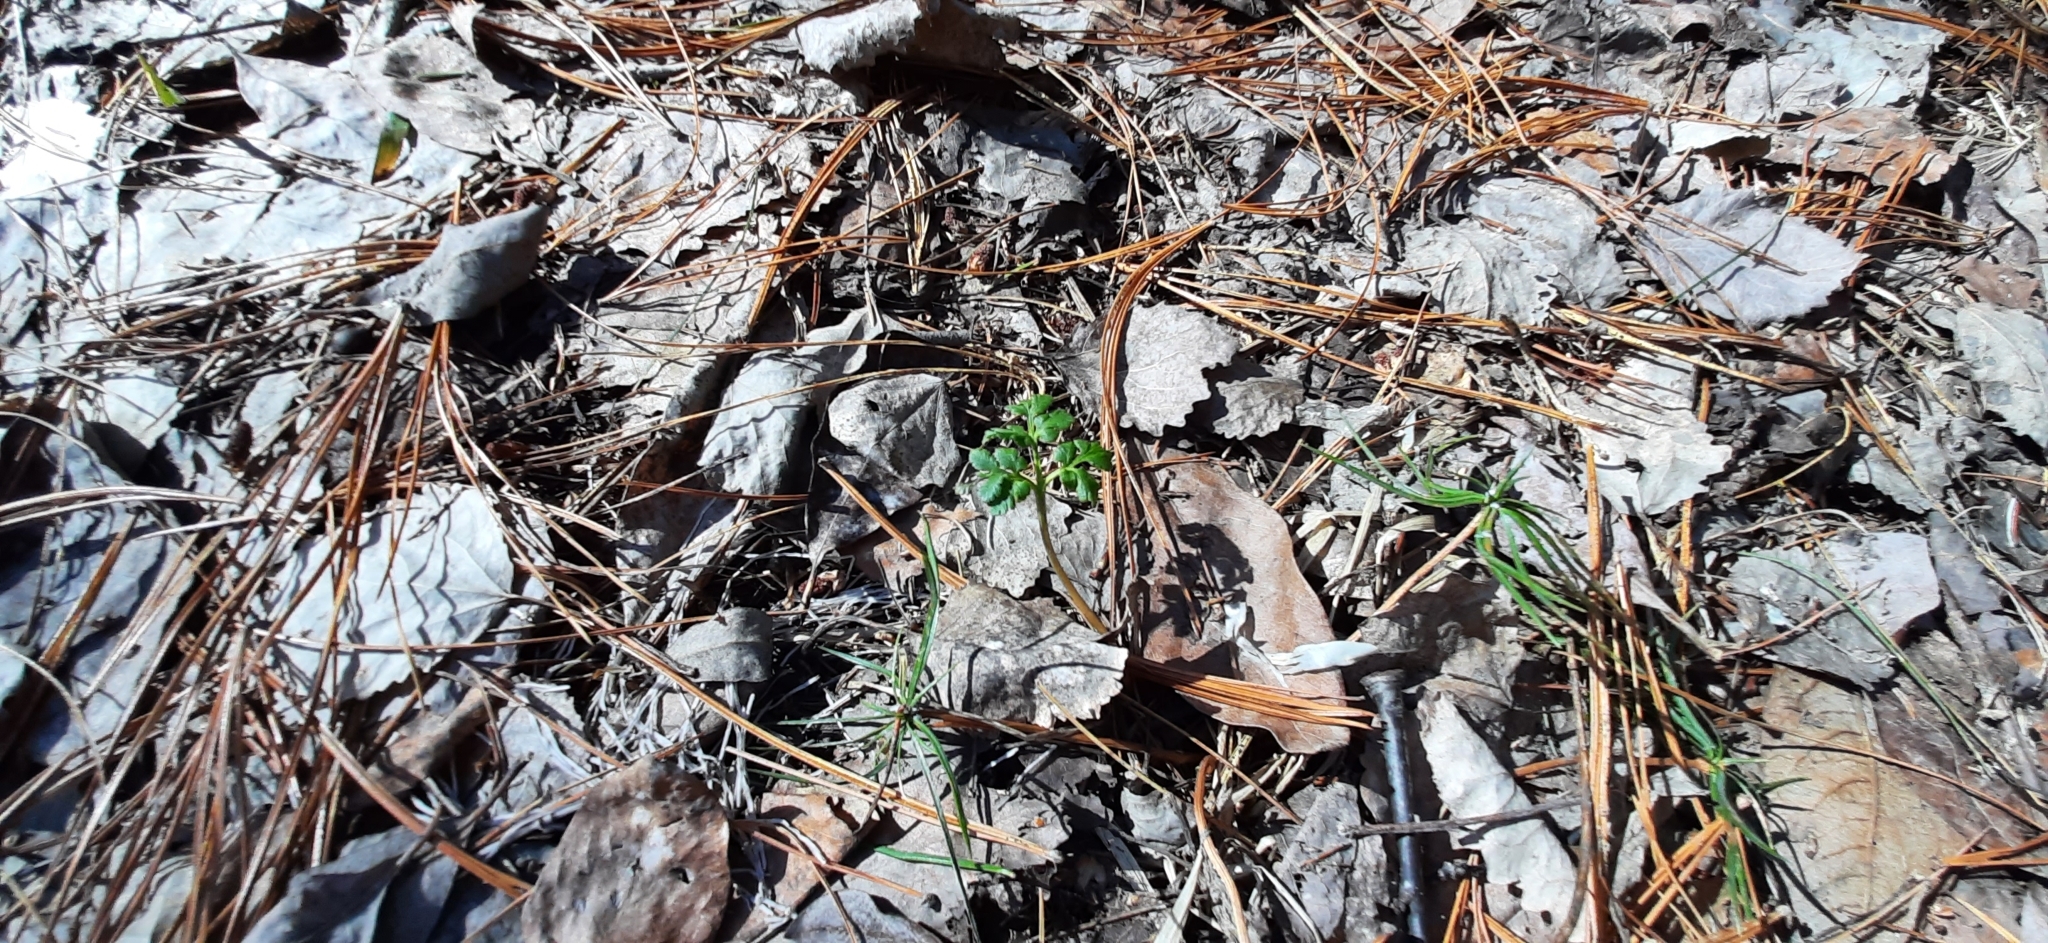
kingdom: Plantae
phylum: Tracheophyta
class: Polypodiopsida
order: Ophioglossales
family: Ophioglossaceae
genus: Sceptridium
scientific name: Sceptridium multifidum
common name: Leathery grape fern
